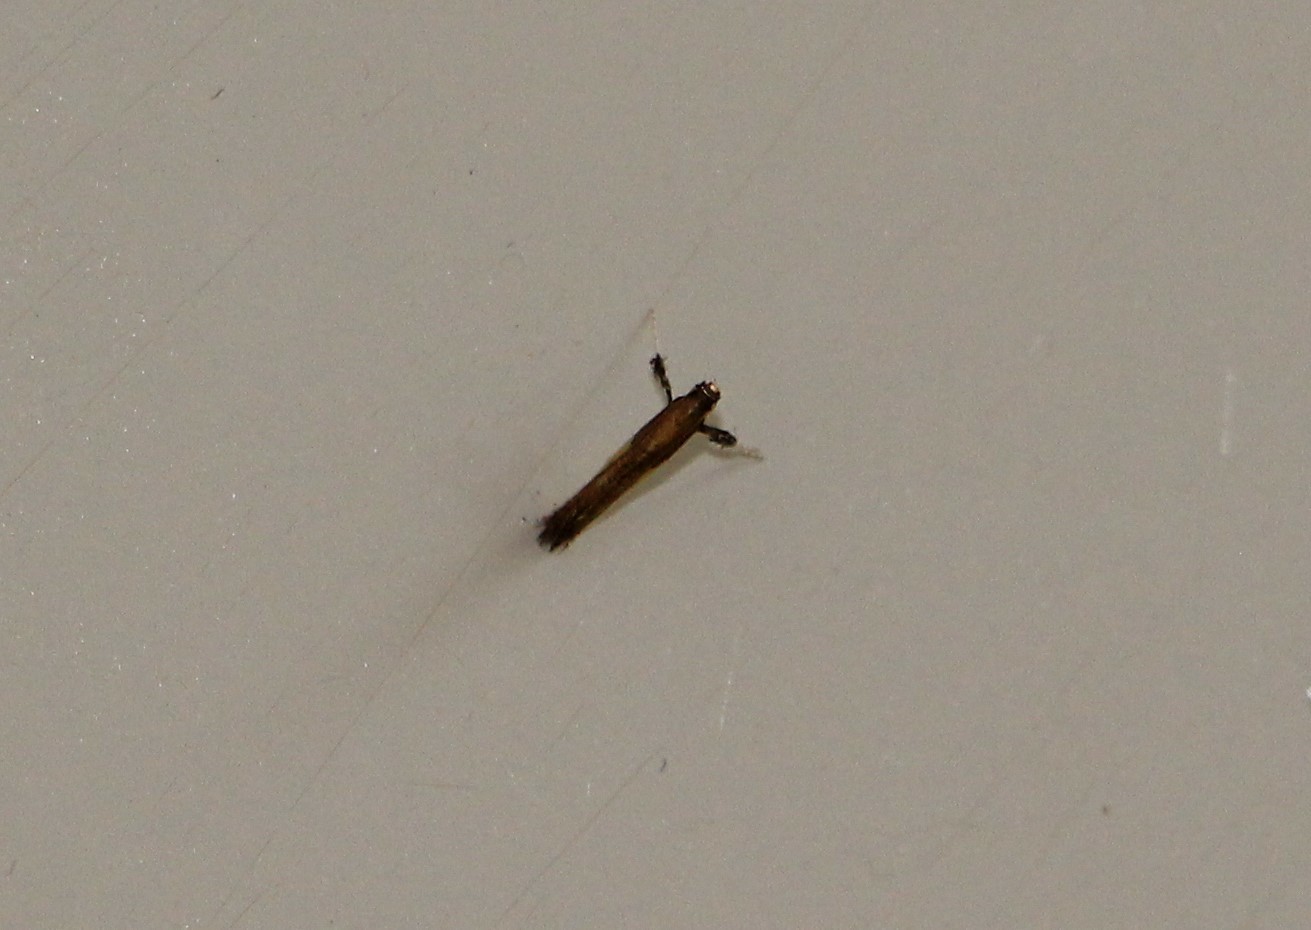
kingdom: Animalia
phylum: Arthropoda
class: Insecta
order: Lepidoptera
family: Gracillariidae
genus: Caloptilia
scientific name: Caloptilia azaleella
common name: Azalea leafminer
